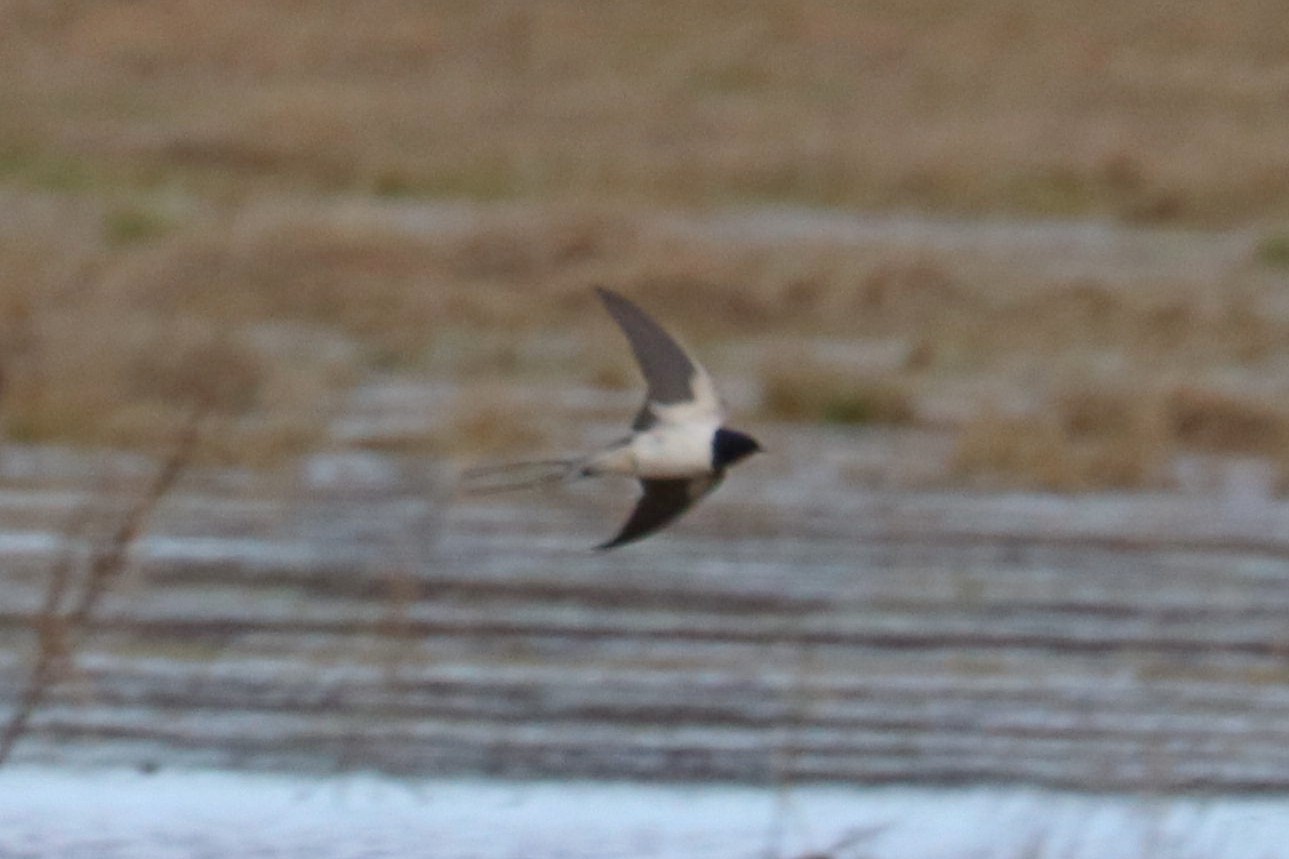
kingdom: Animalia
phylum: Chordata
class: Aves
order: Passeriformes
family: Hirundinidae
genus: Hirundo
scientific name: Hirundo rustica
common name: Barn swallow
